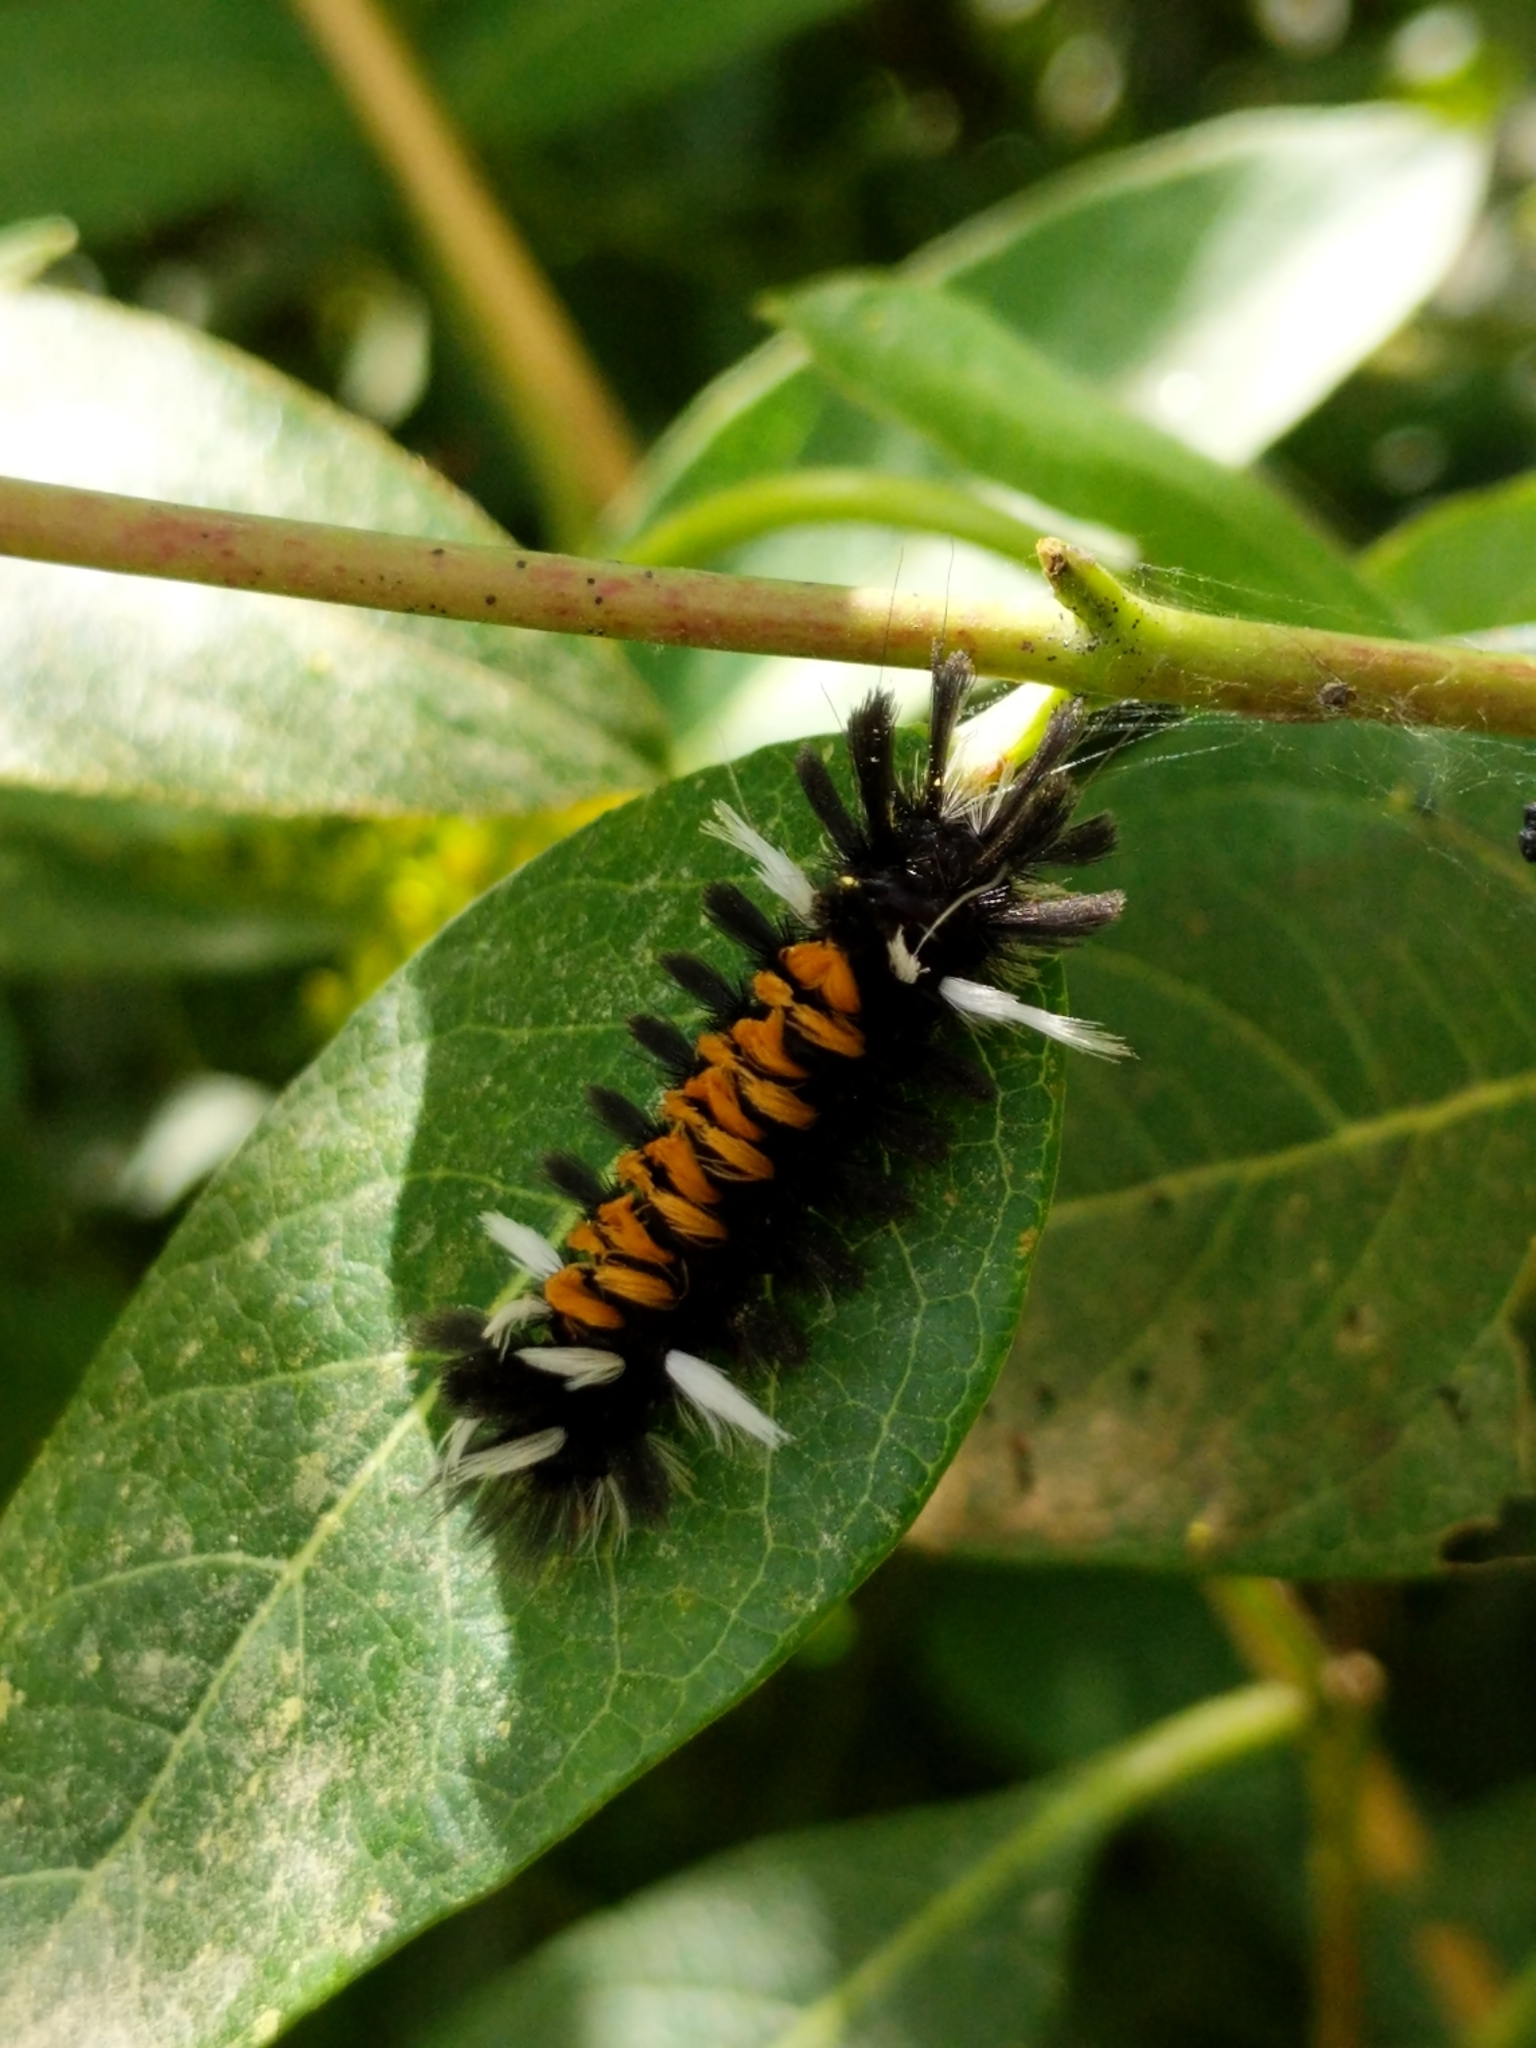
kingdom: Animalia
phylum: Arthropoda
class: Insecta
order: Lepidoptera
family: Erebidae
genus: Euchaetes
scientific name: Euchaetes egle
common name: Milkweed tussock moth
